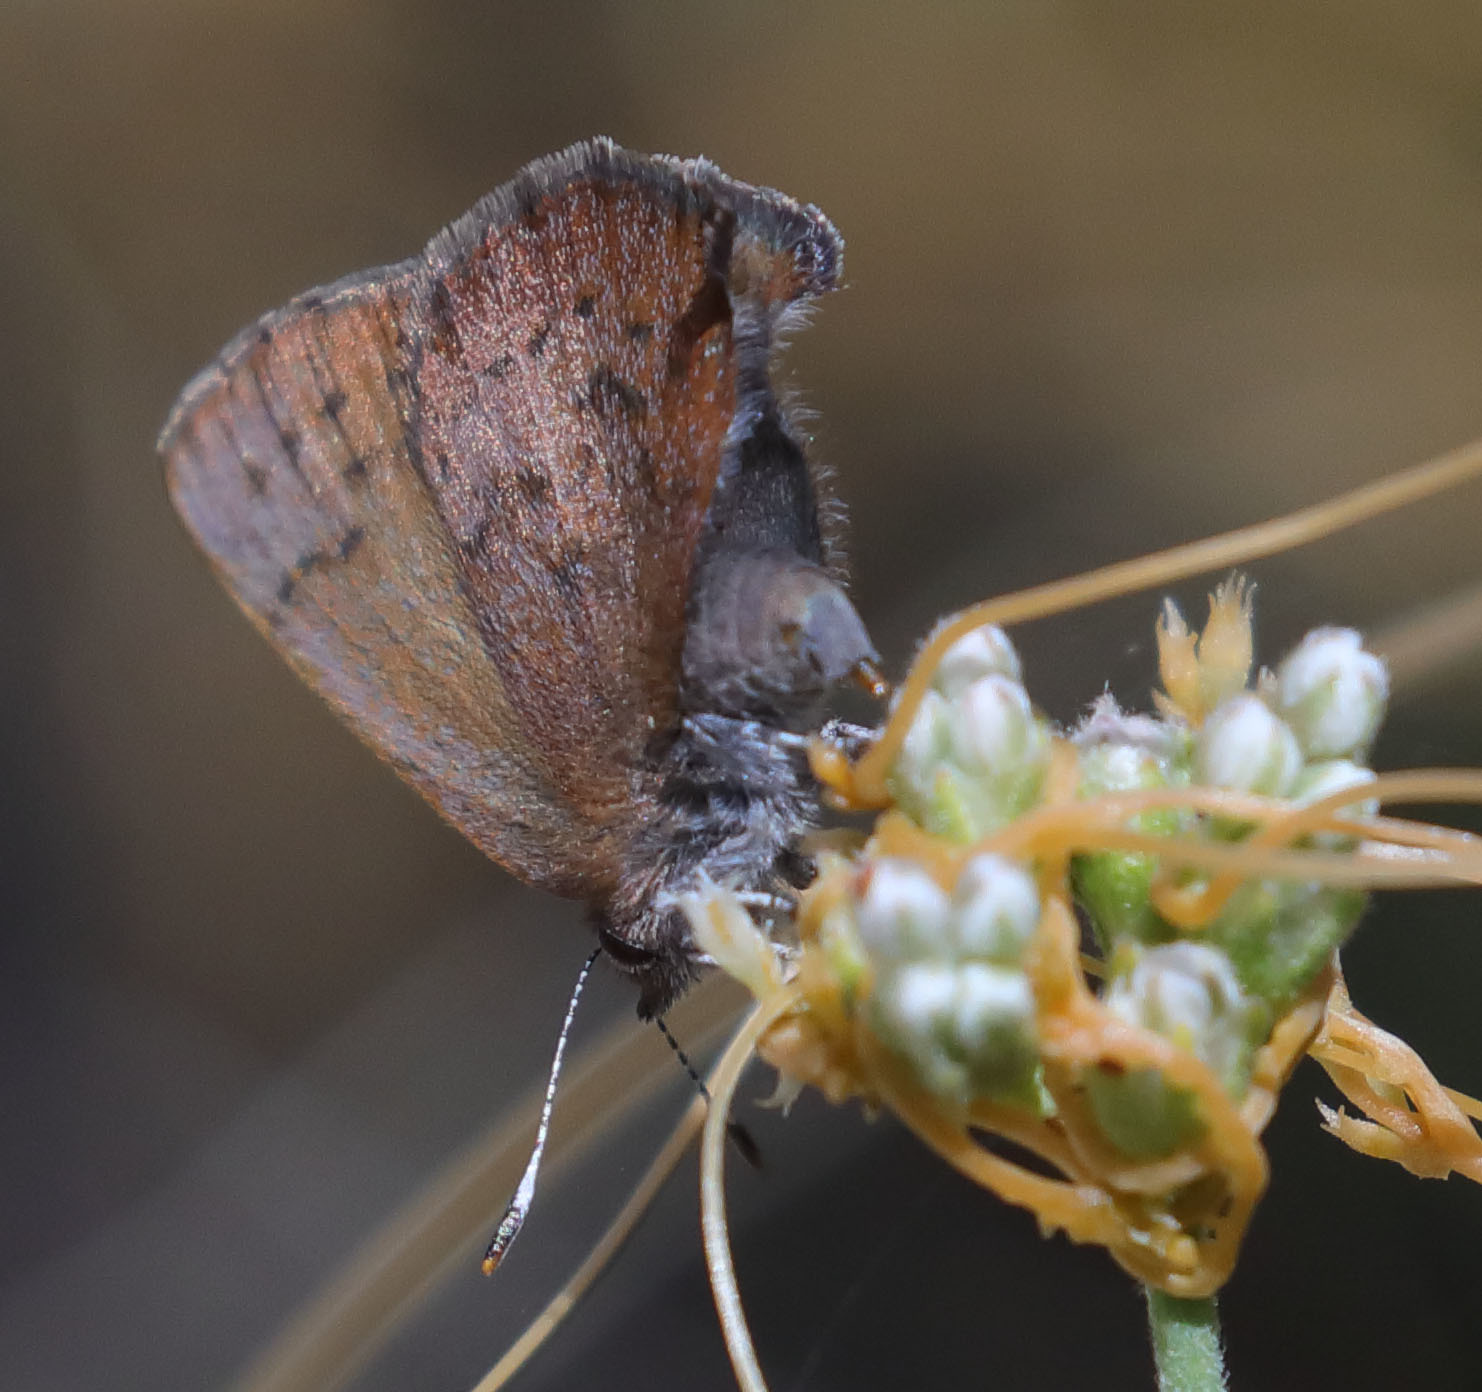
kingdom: Animalia
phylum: Arthropoda
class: Insecta
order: Lepidoptera
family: Lycaenidae
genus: Incisalia
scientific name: Incisalia irioides
